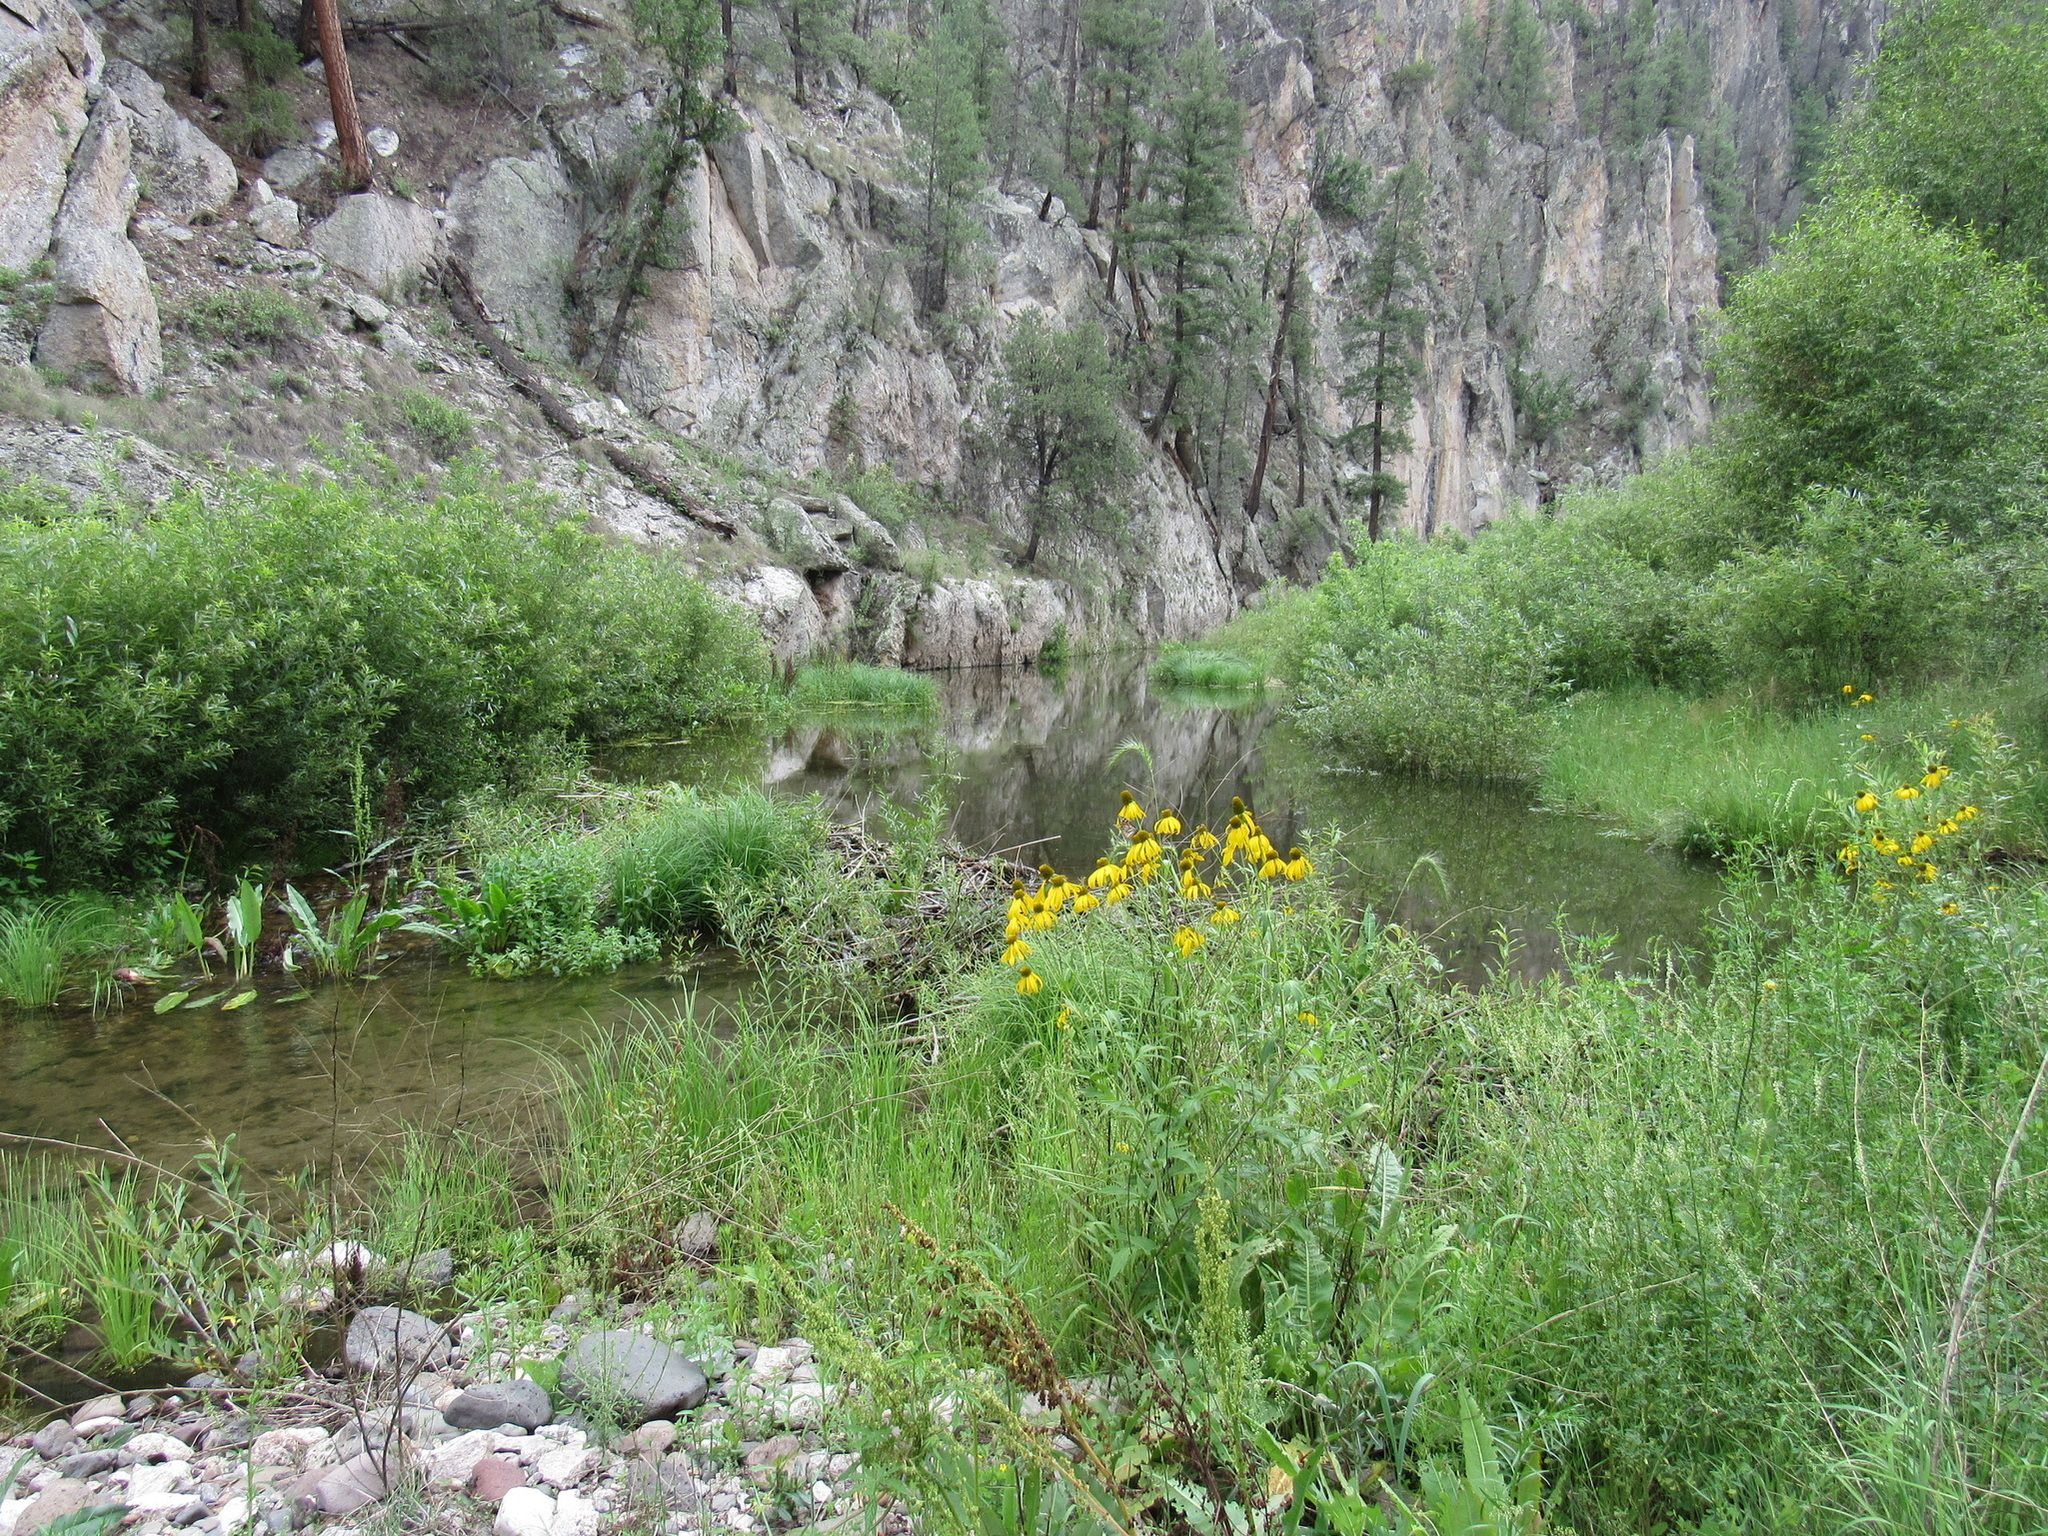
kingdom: Plantae
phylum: Tracheophyta
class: Magnoliopsida
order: Asterales
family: Asteraceae
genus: Rudbeckia
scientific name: Rudbeckia laciniata
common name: Coneflower
